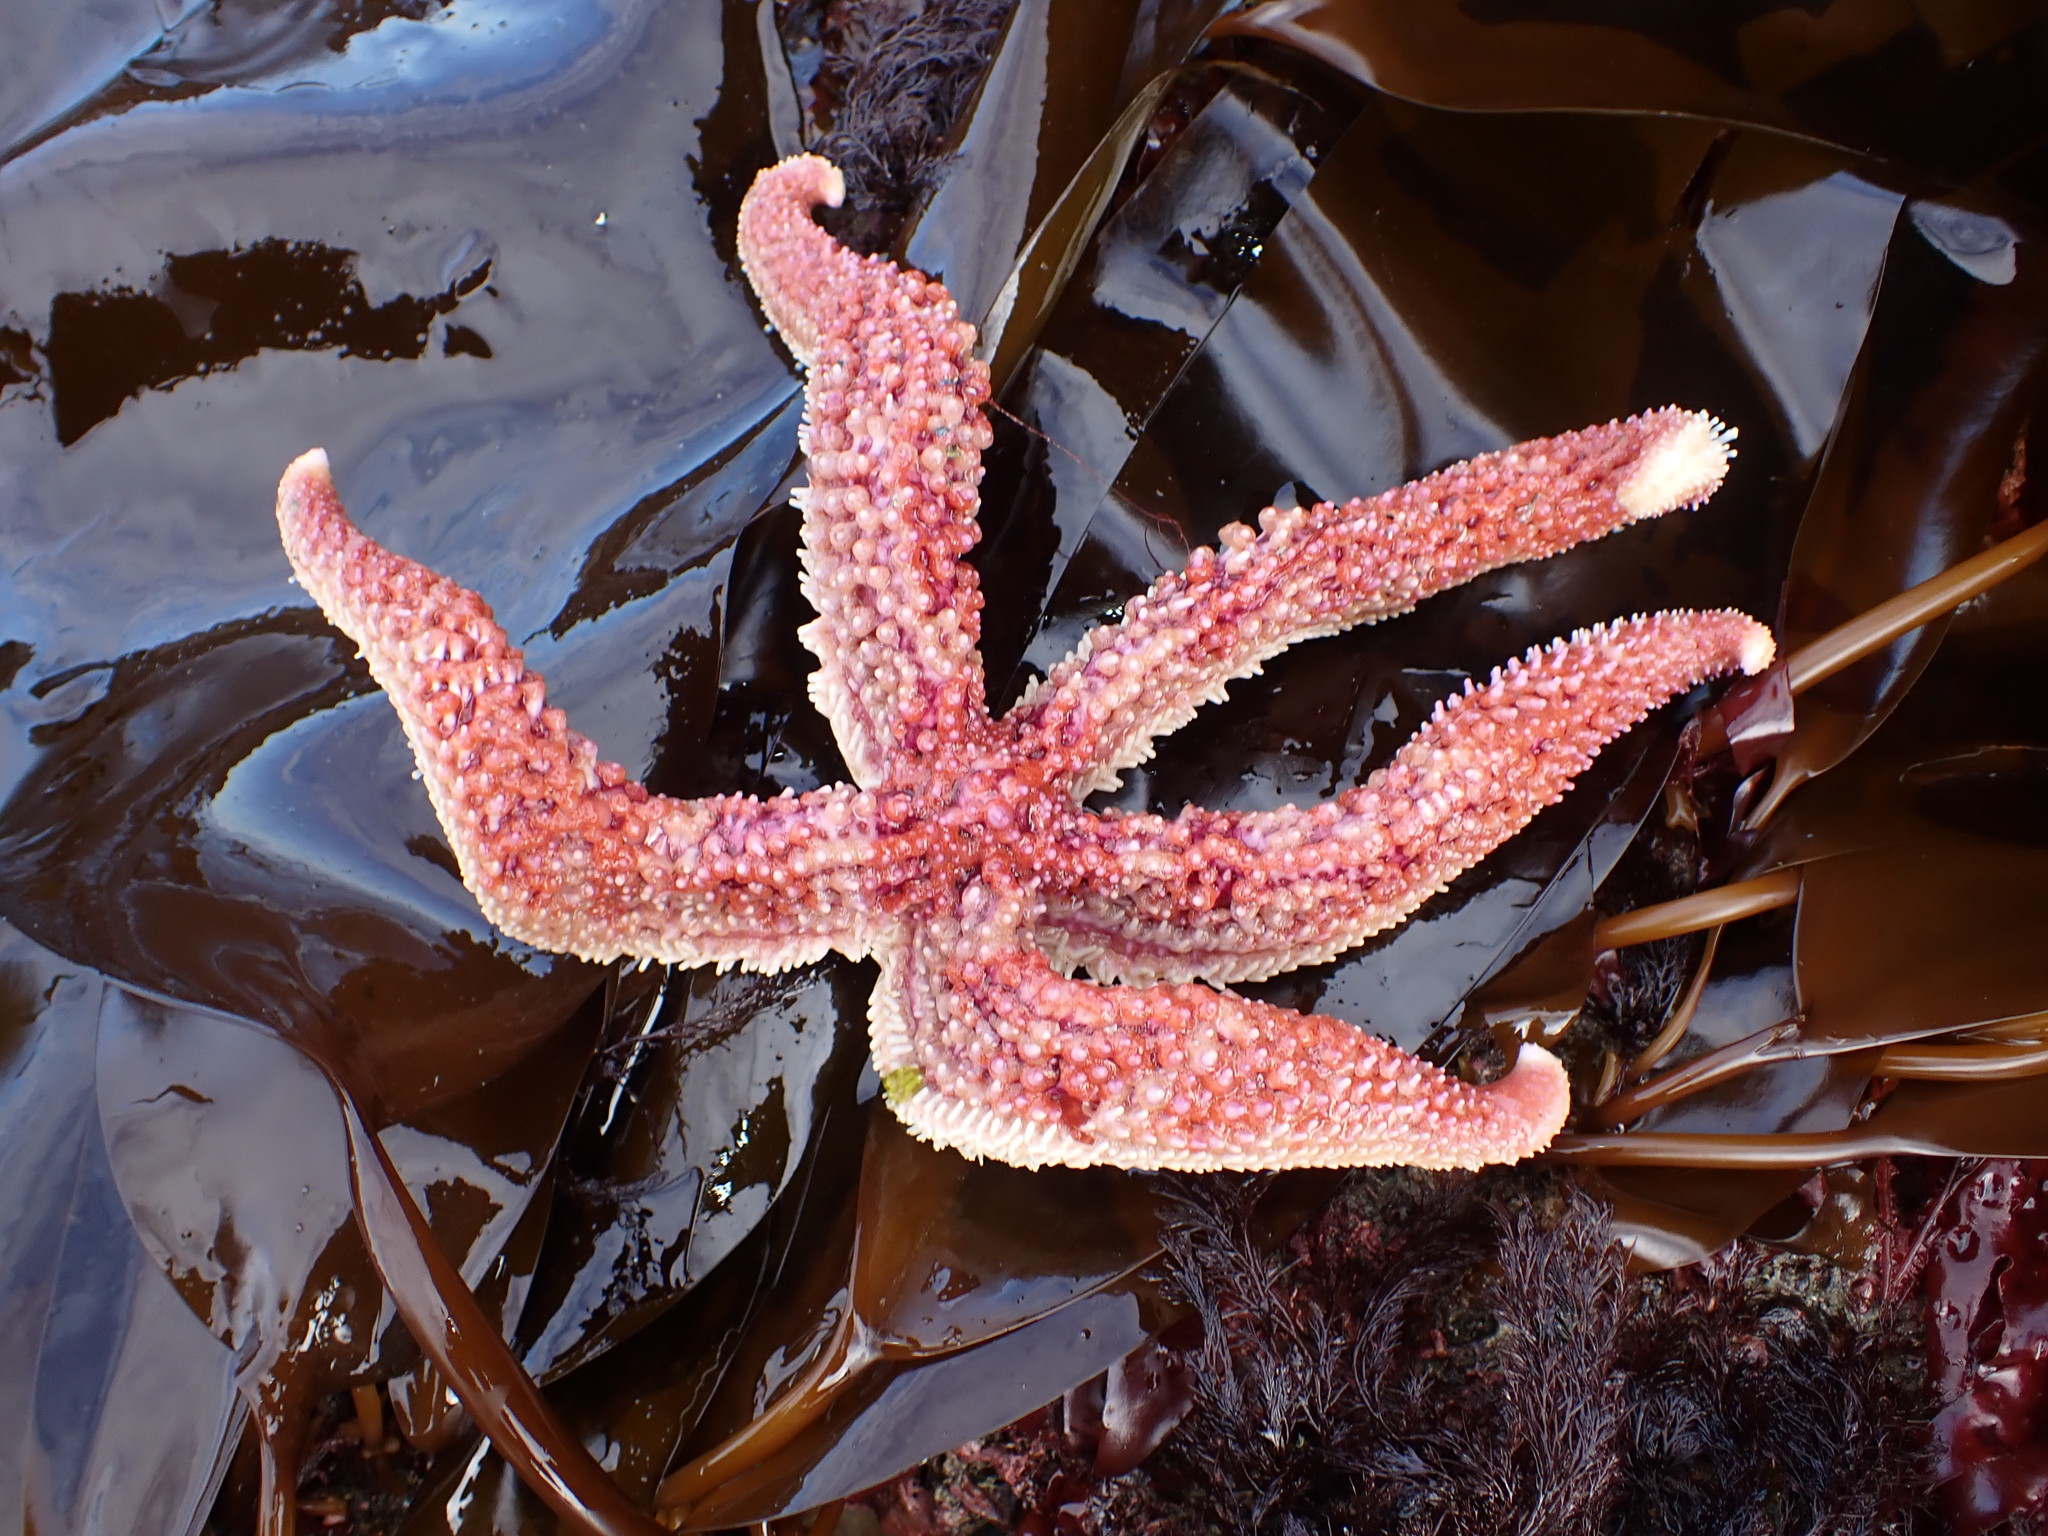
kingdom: Animalia
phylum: Echinodermata
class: Asteroidea
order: Forcipulatida
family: Asteriidae
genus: Orthasterias
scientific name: Orthasterias koehleri
